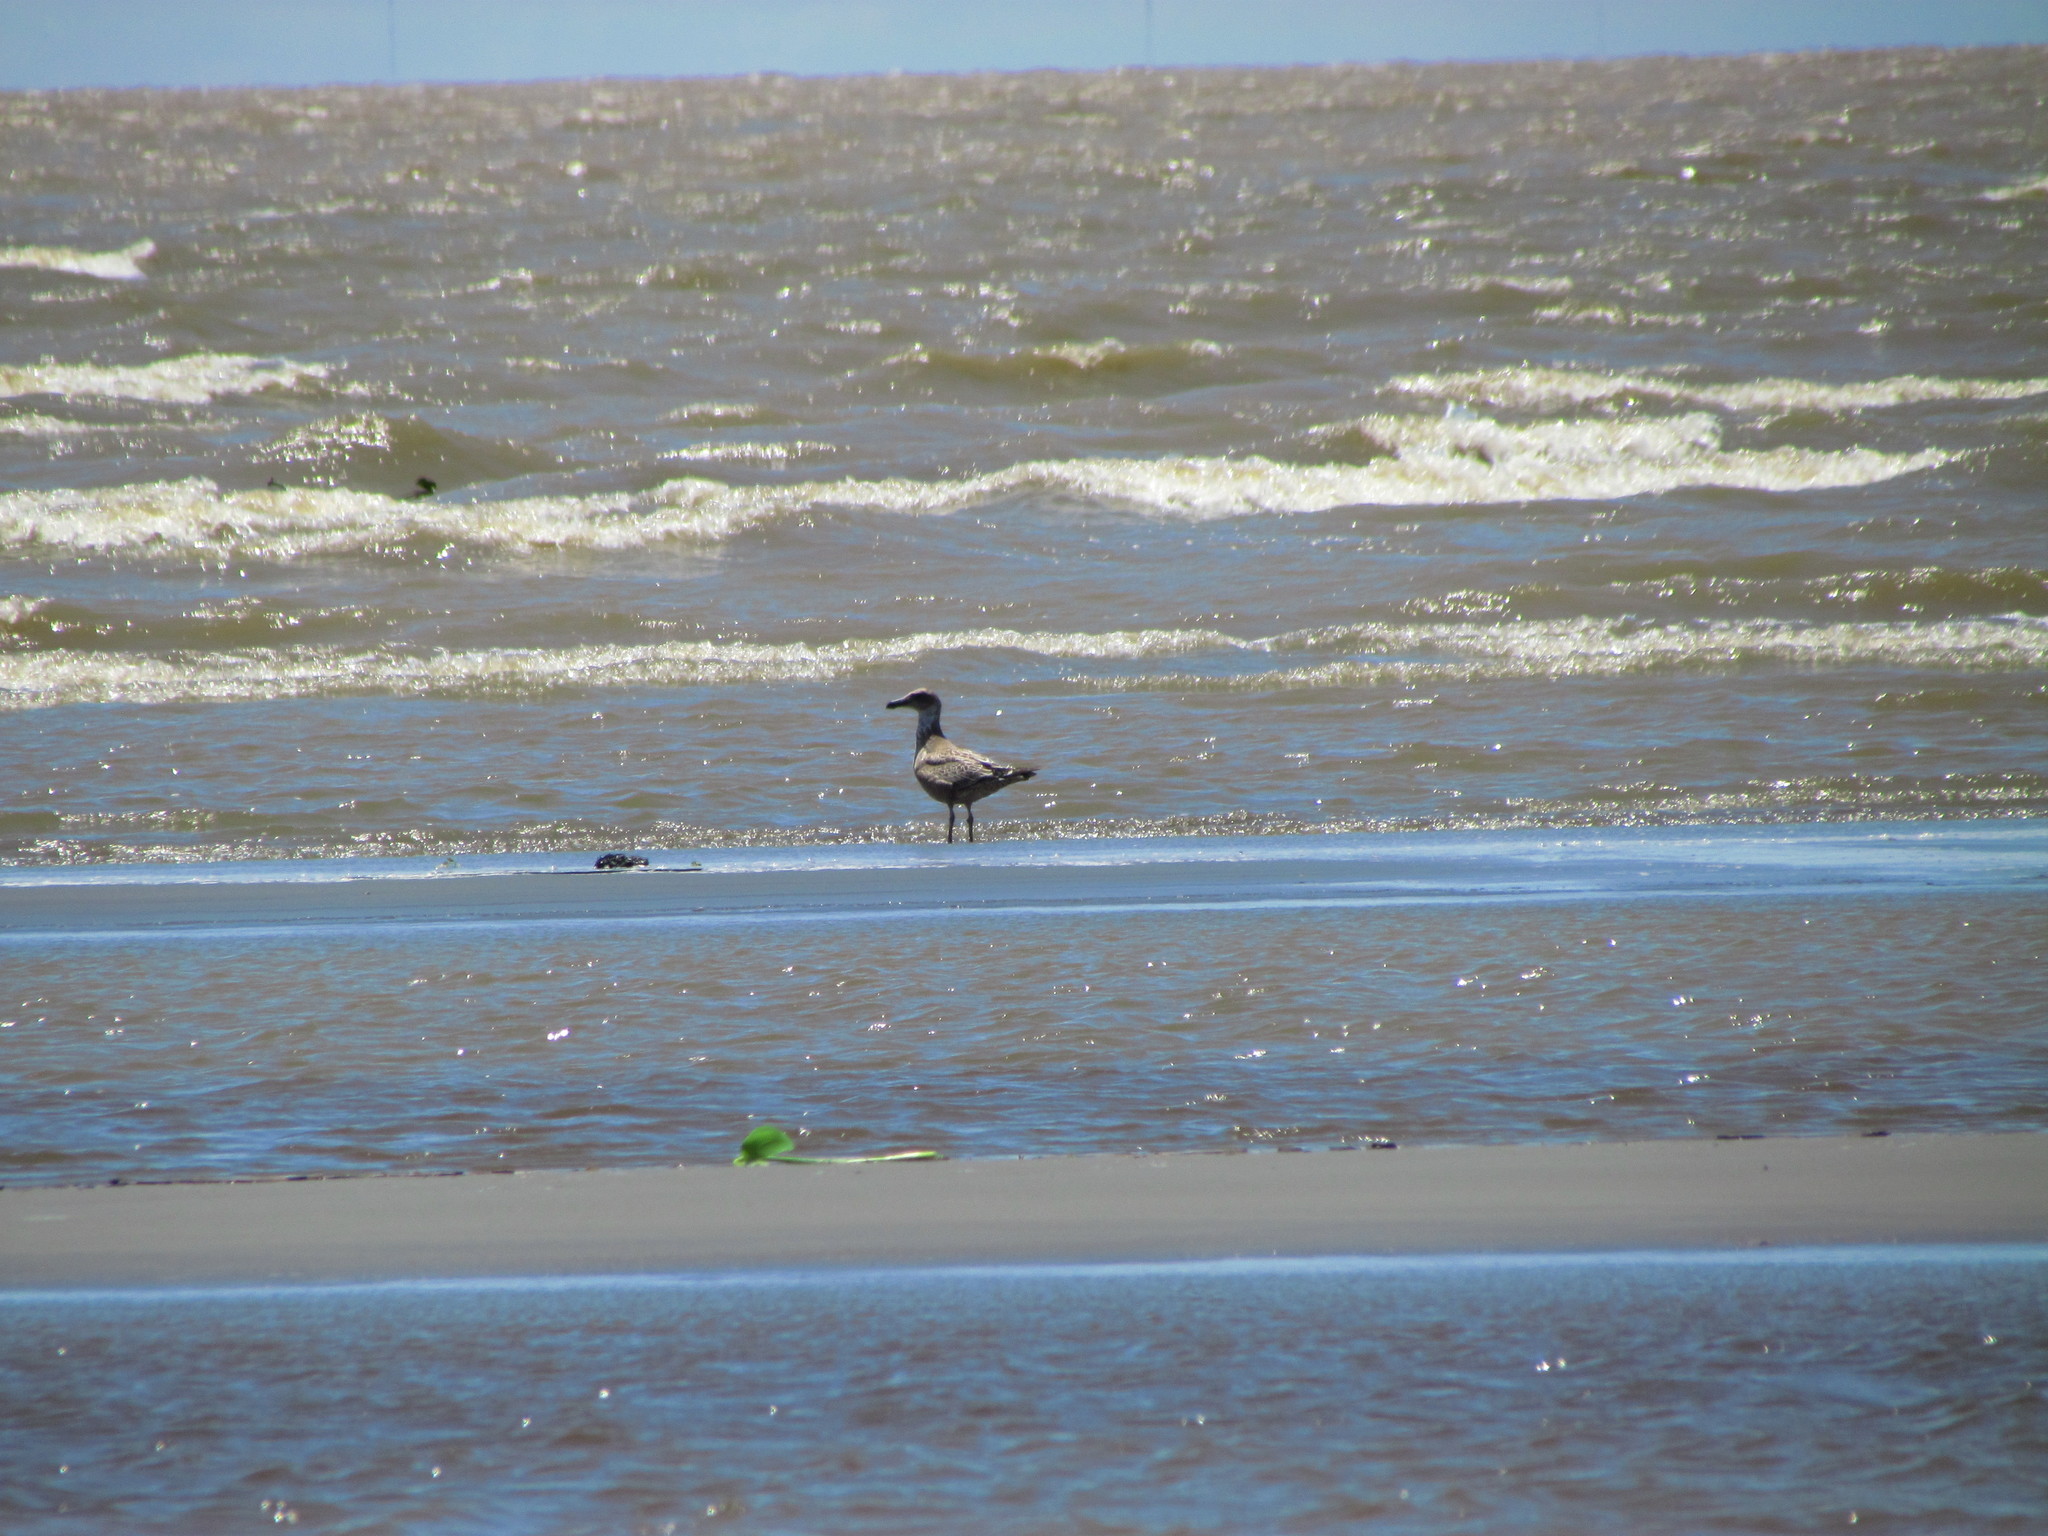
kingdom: Animalia
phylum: Chordata
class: Aves
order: Charadriiformes
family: Laridae
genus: Larus
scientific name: Larus dominicanus
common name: Kelp gull
